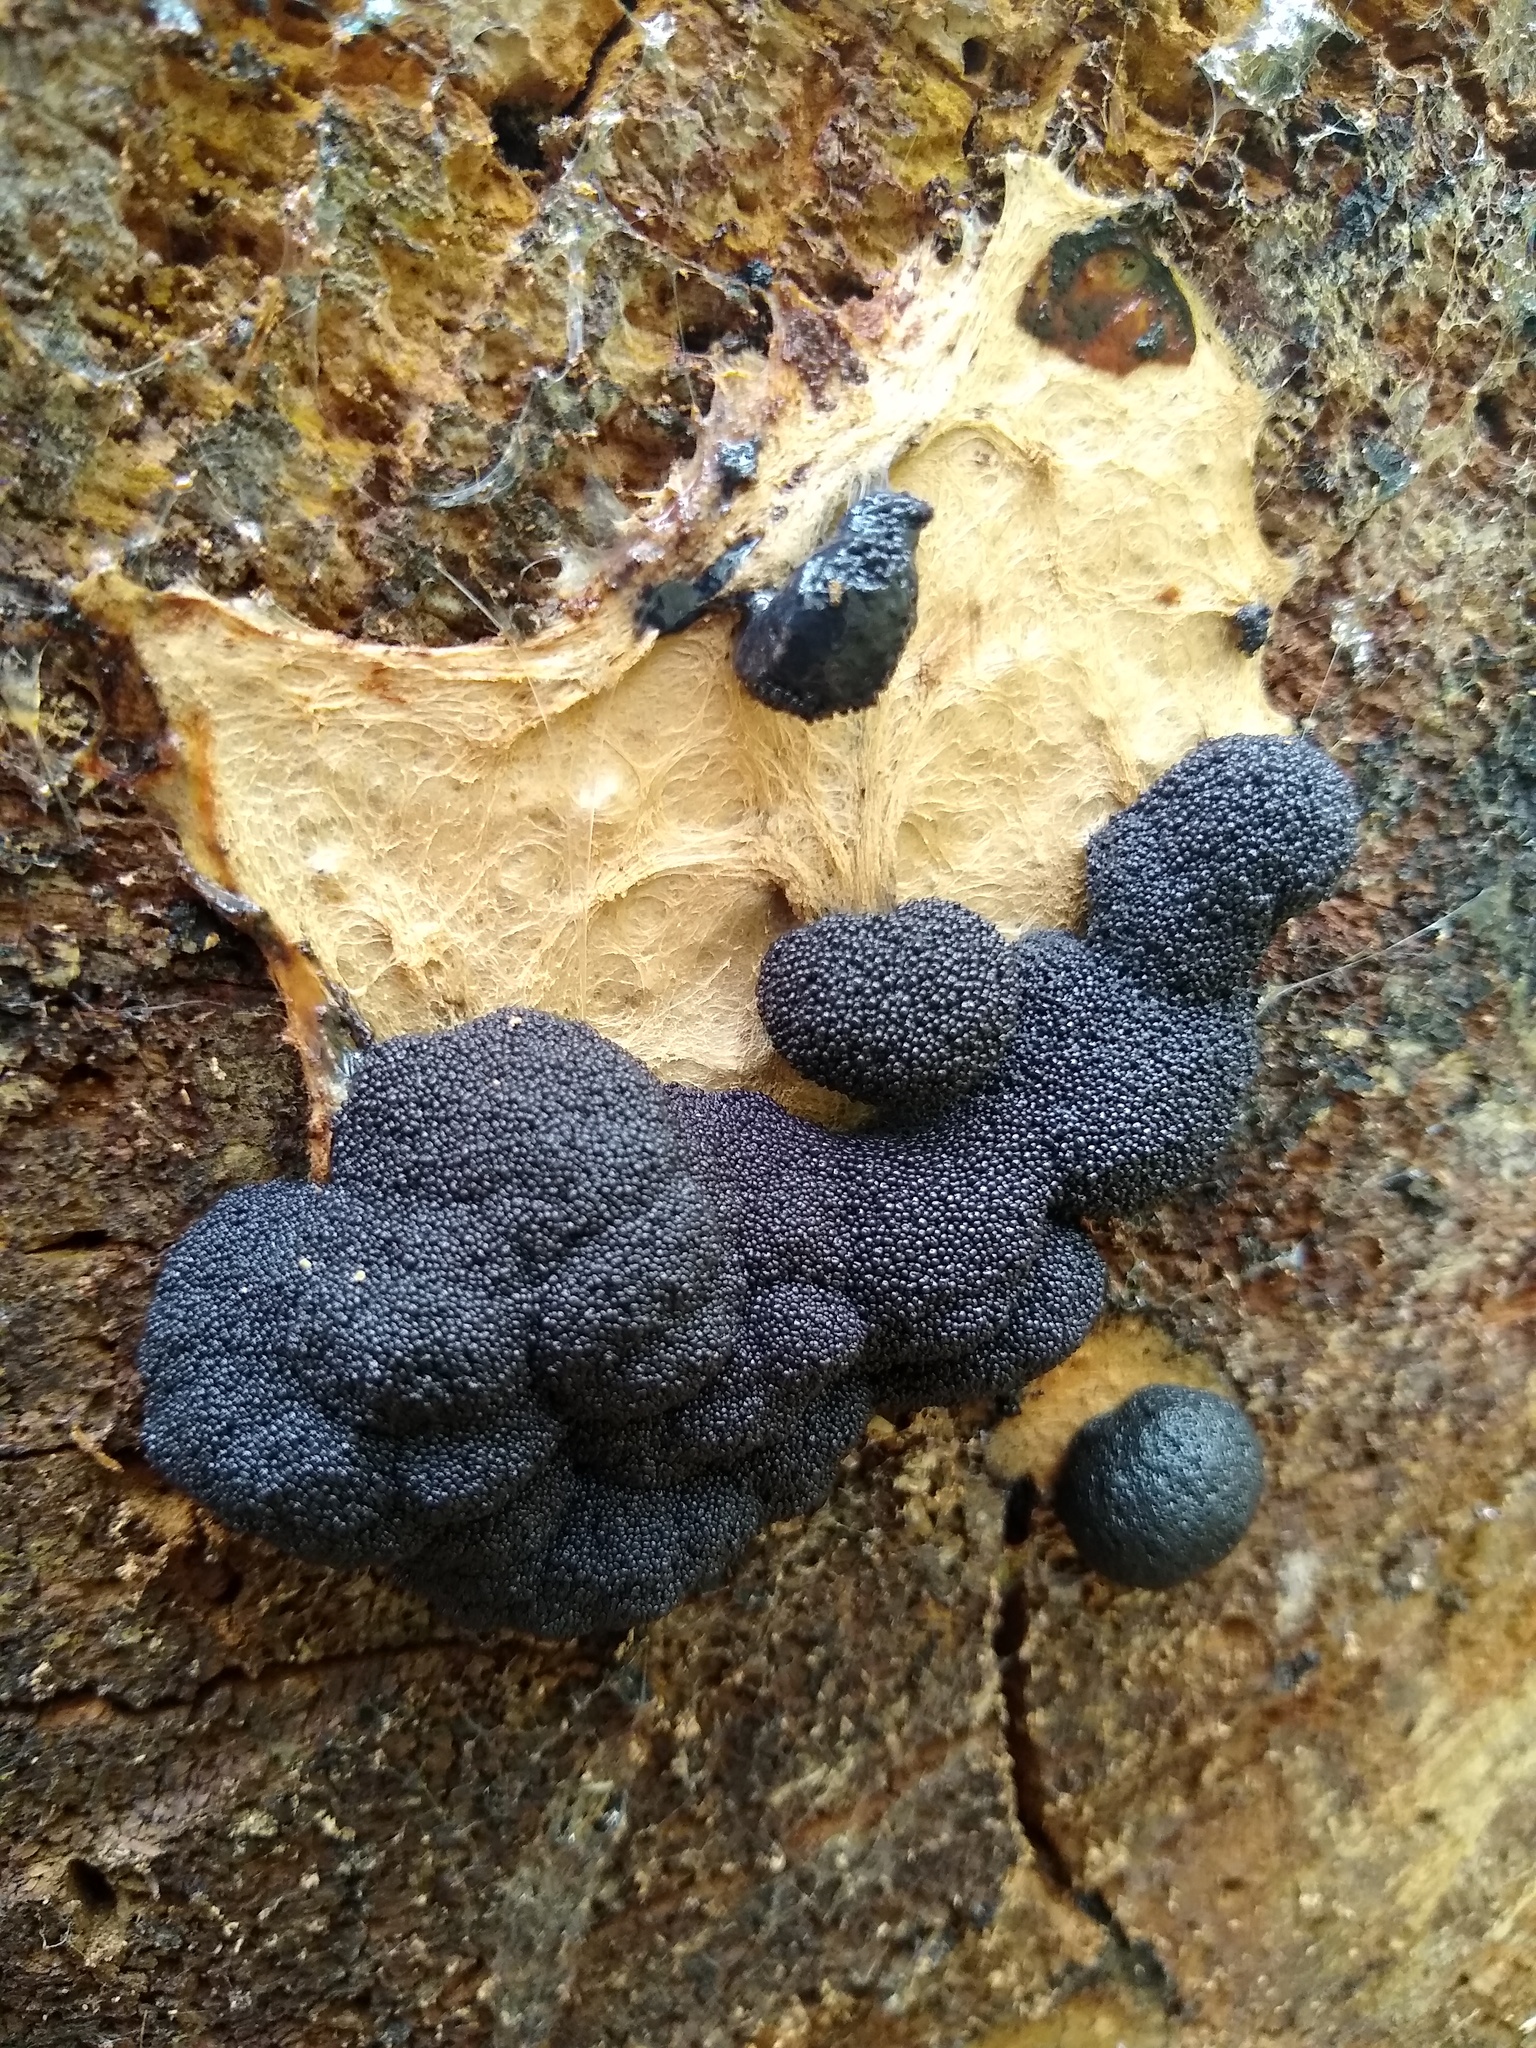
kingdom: Protozoa
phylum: Mycetozoa
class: Myxomycetes
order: Cribrariales
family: Cribrariaceae
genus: Lindbladia
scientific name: Lindbladia tubulina
